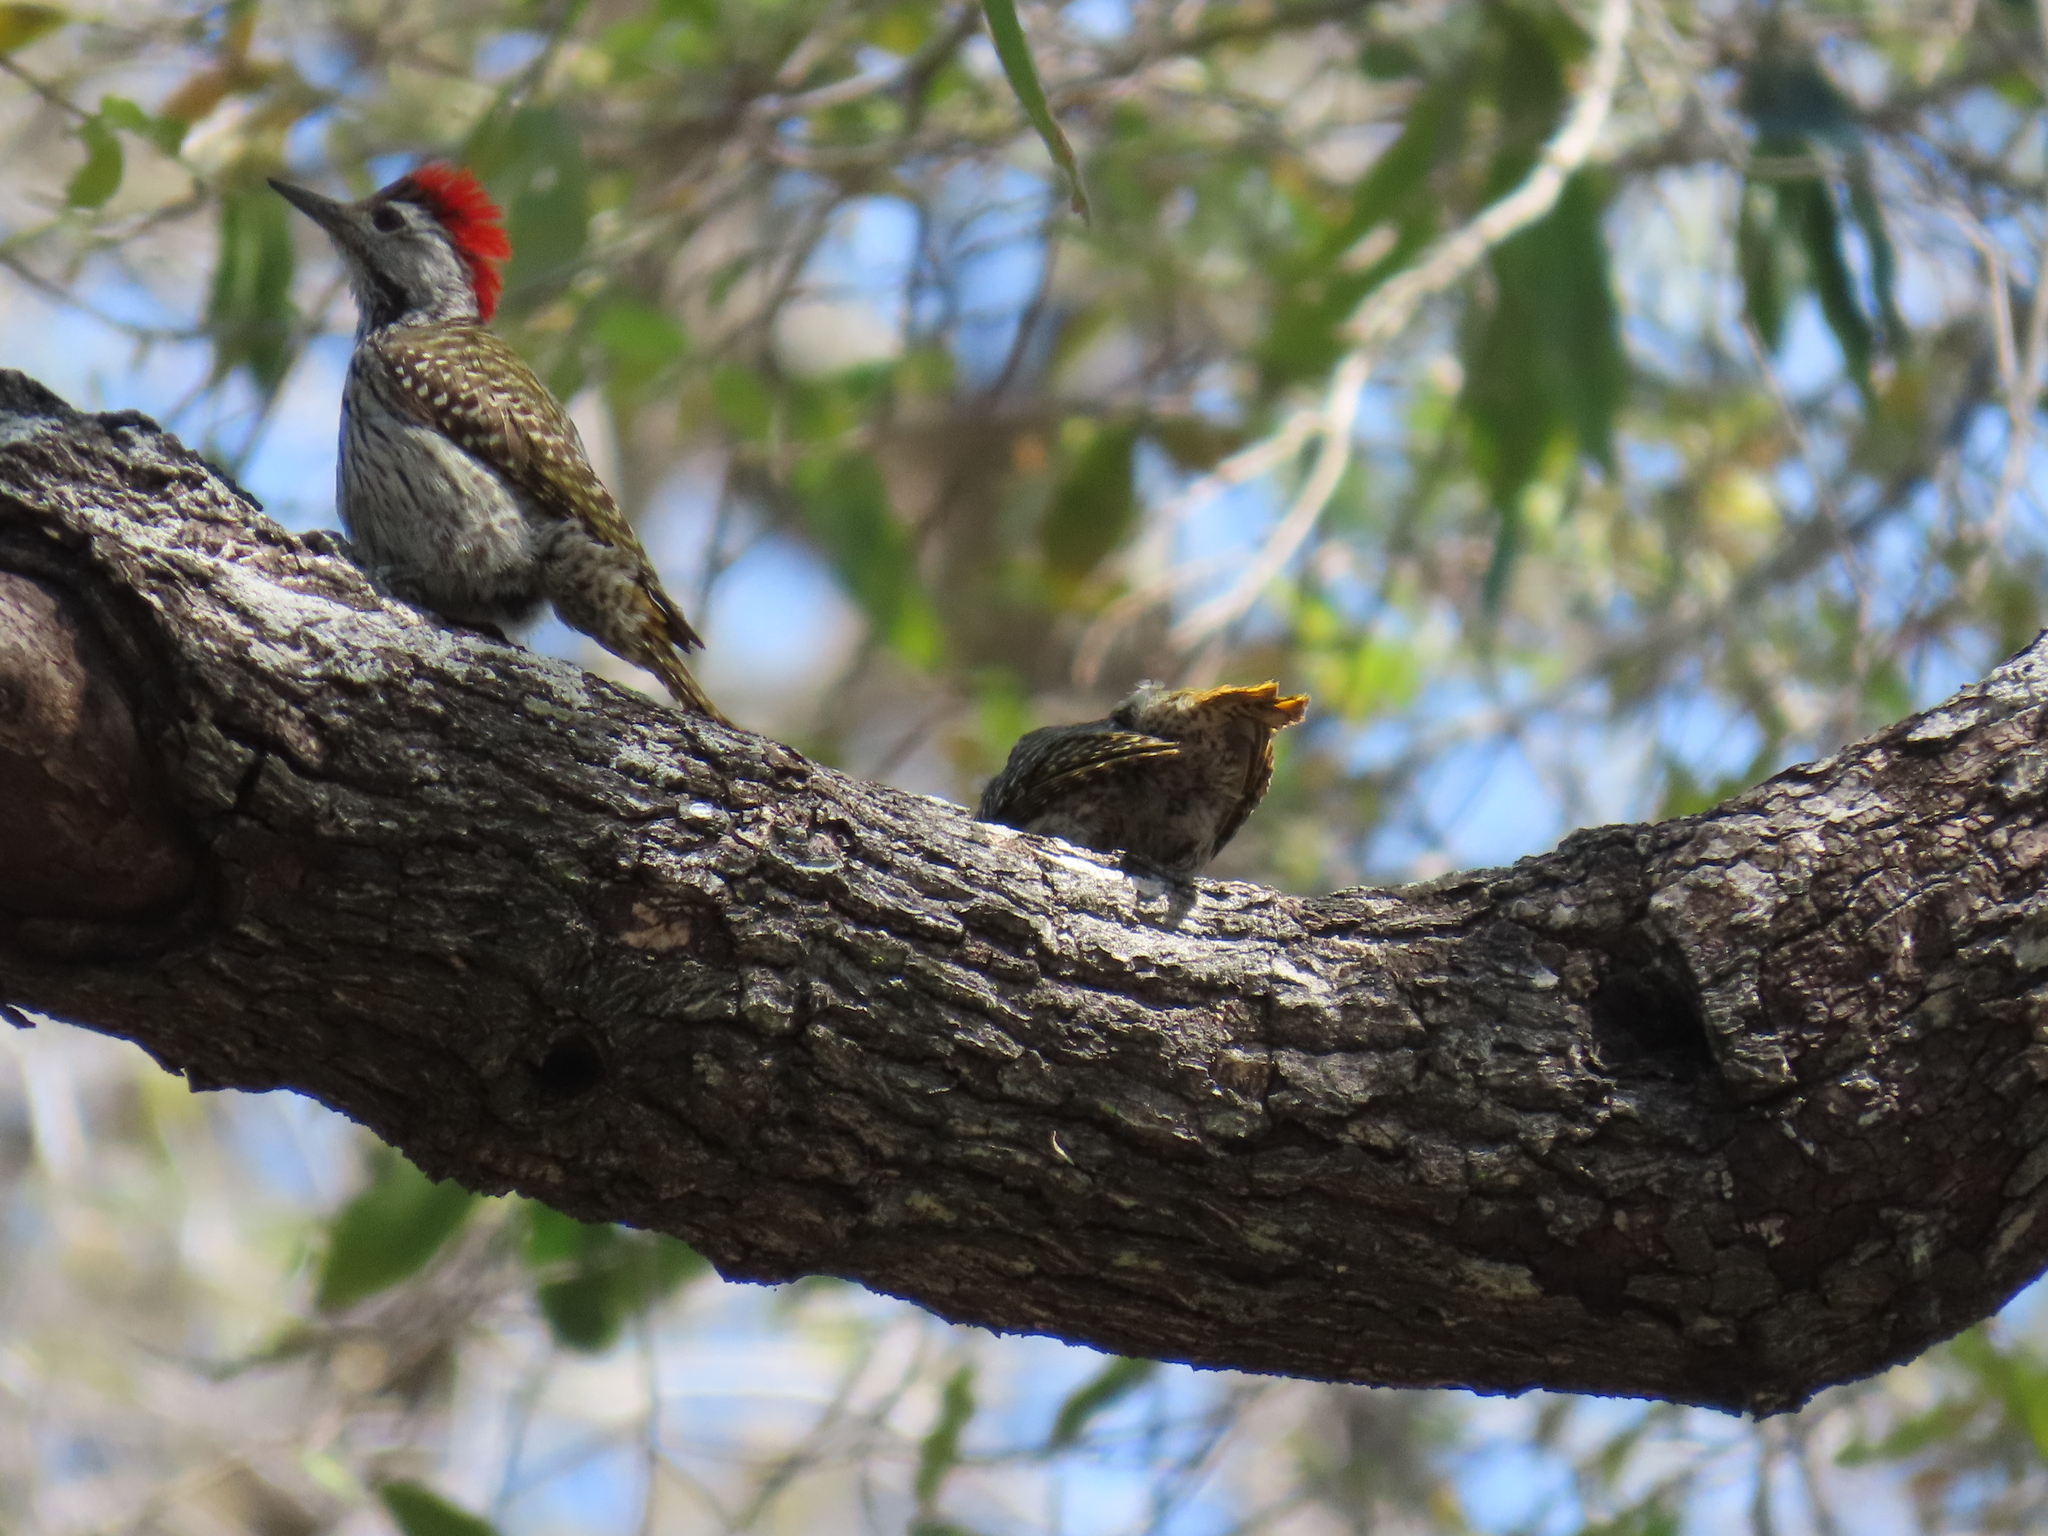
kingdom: Animalia
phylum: Chordata
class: Aves
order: Piciformes
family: Picidae
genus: Dendropicos
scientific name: Dendropicos fuscescens
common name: Cardinal woodpecker
